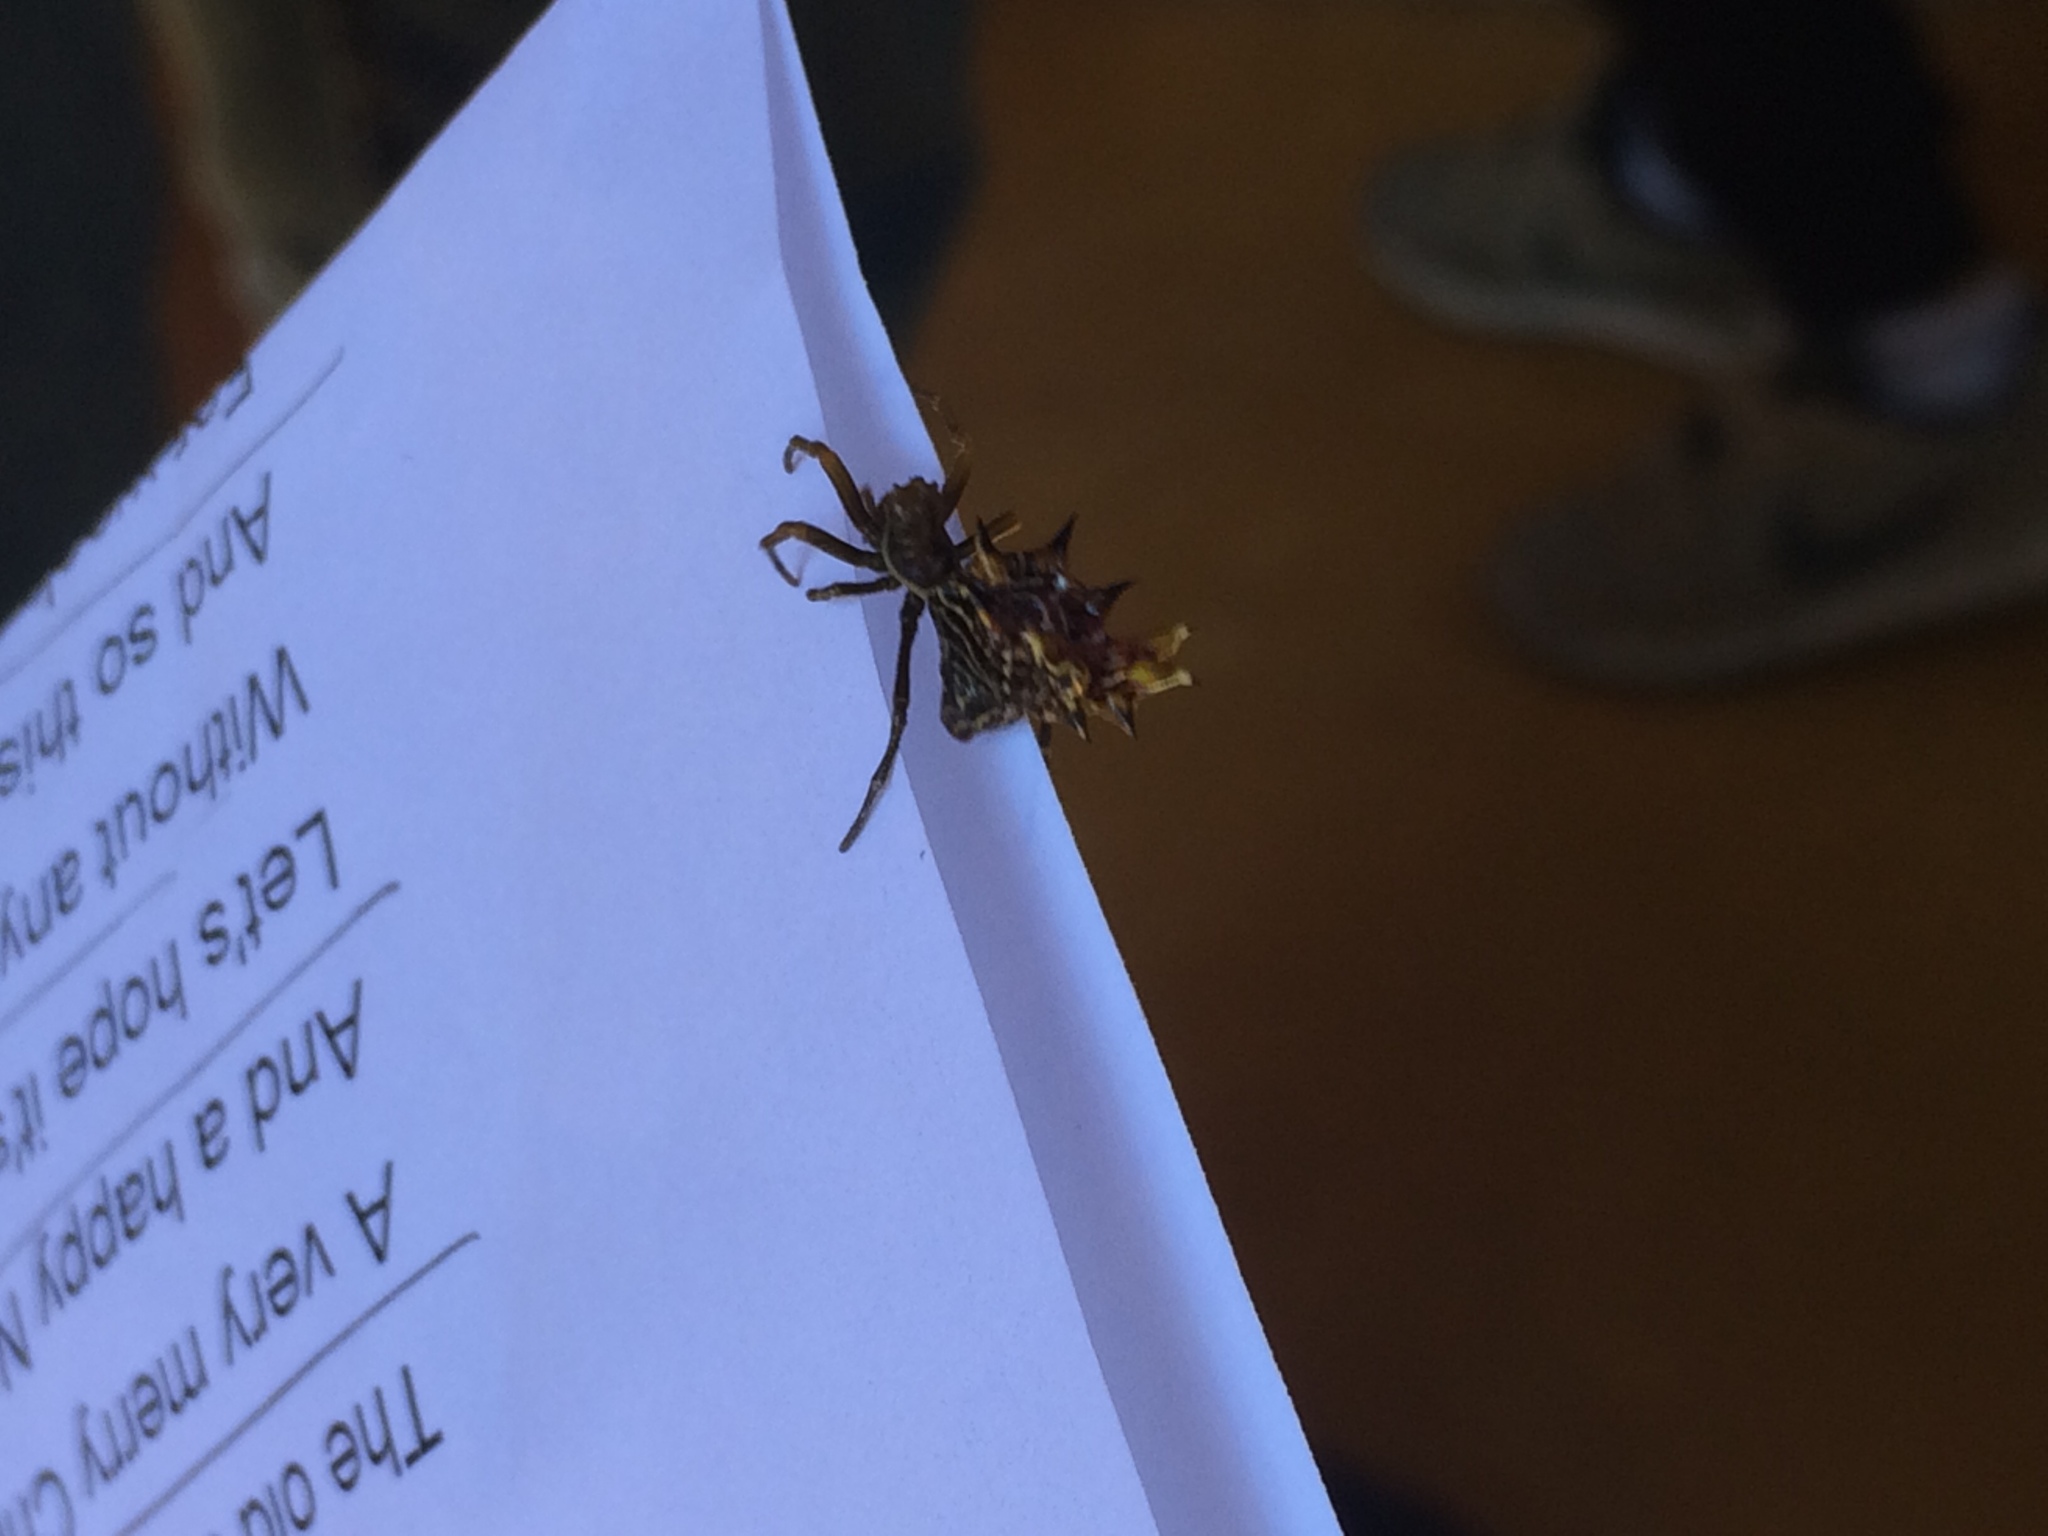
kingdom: Animalia
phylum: Arthropoda
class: Arachnida
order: Araneae
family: Araneidae
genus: Micrathena
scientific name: Micrathena gracilis
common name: Orb weavers
